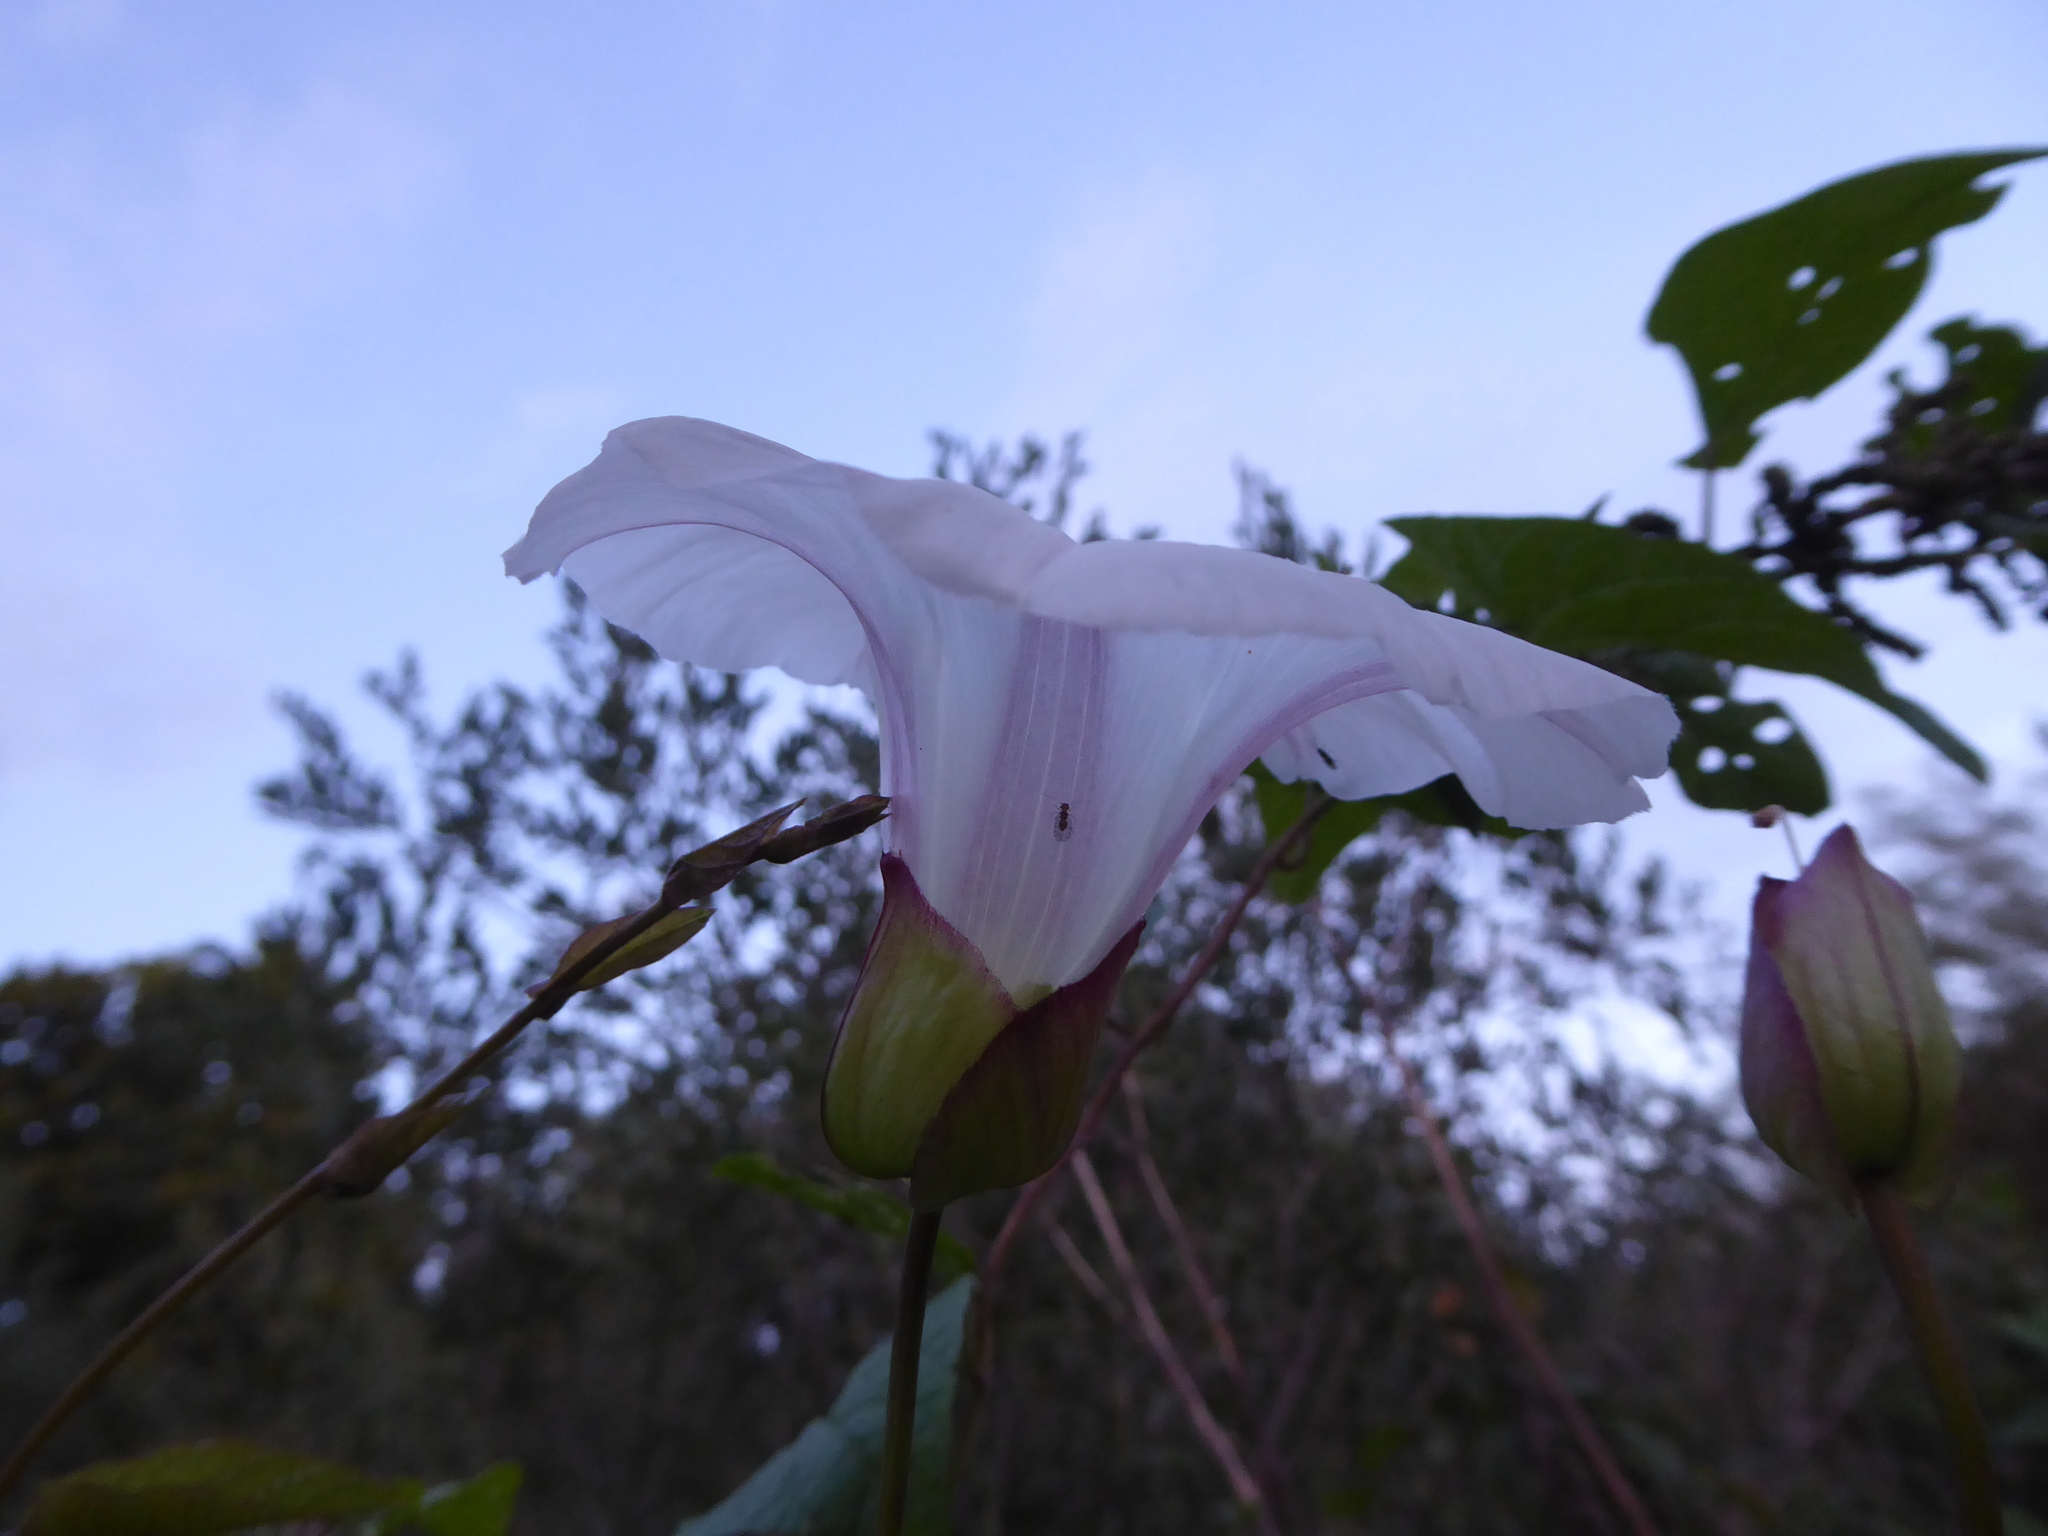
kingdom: Plantae
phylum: Tracheophyta
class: Magnoliopsida
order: Solanales
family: Convolvulaceae
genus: Calystegia
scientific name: Calystegia silvatica
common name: Large bindweed
